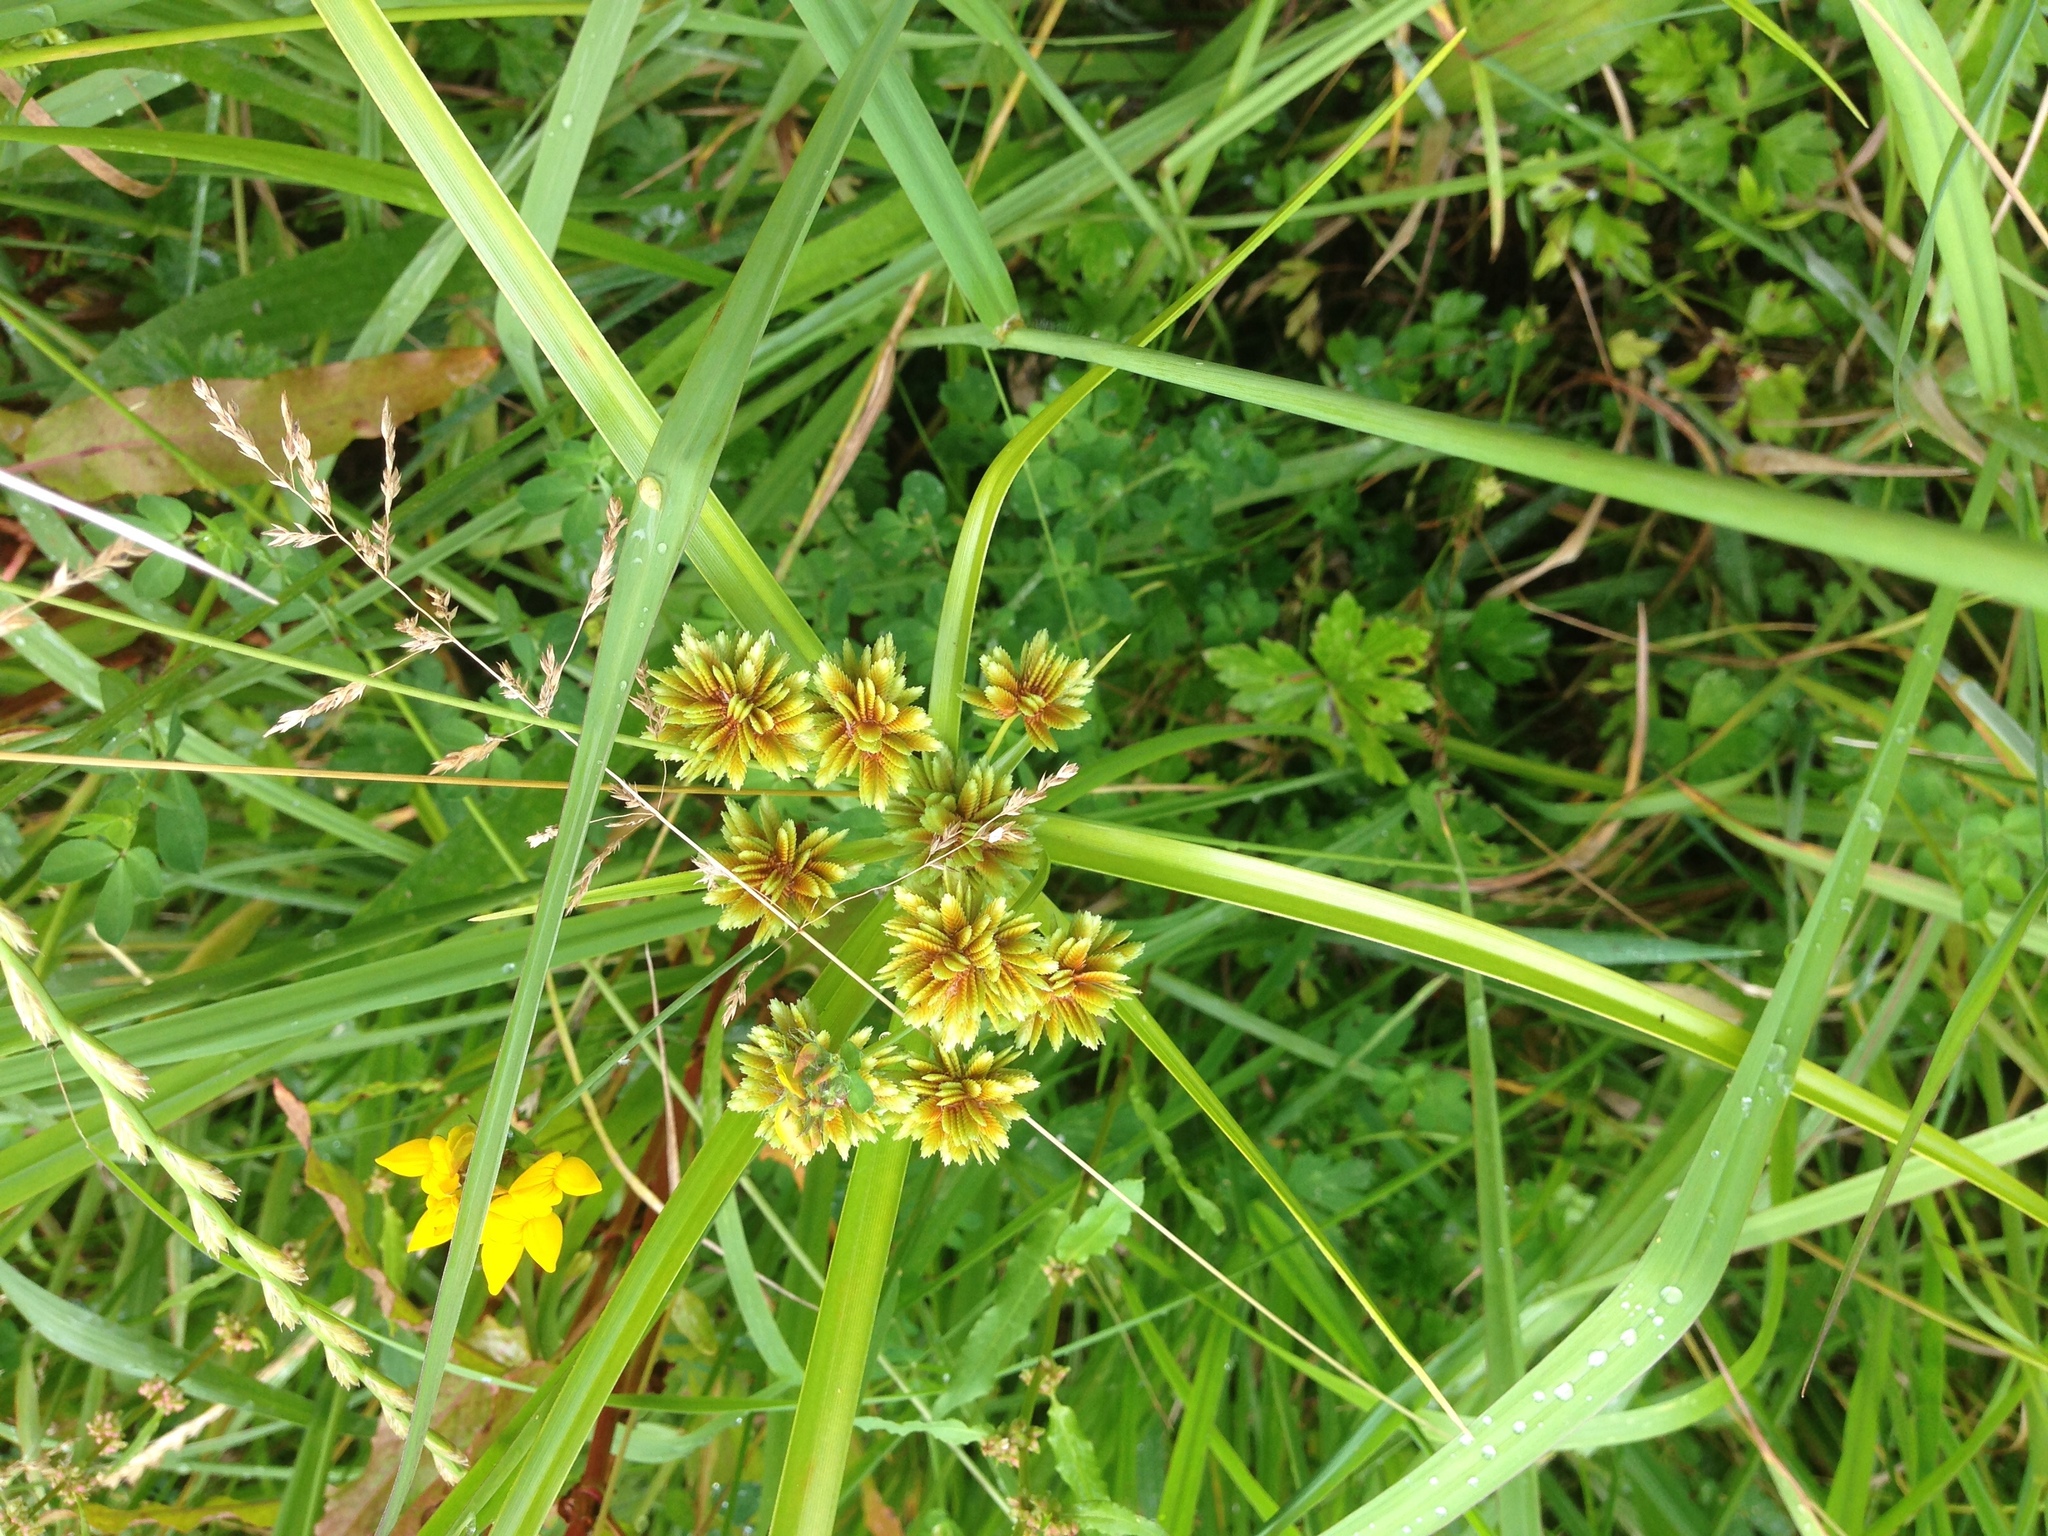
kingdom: Plantae
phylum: Tracheophyta
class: Liliopsida
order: Poales
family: Cyperaceae
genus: Cyperus
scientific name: Cyperus eragrostis
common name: Tall flatsedge
